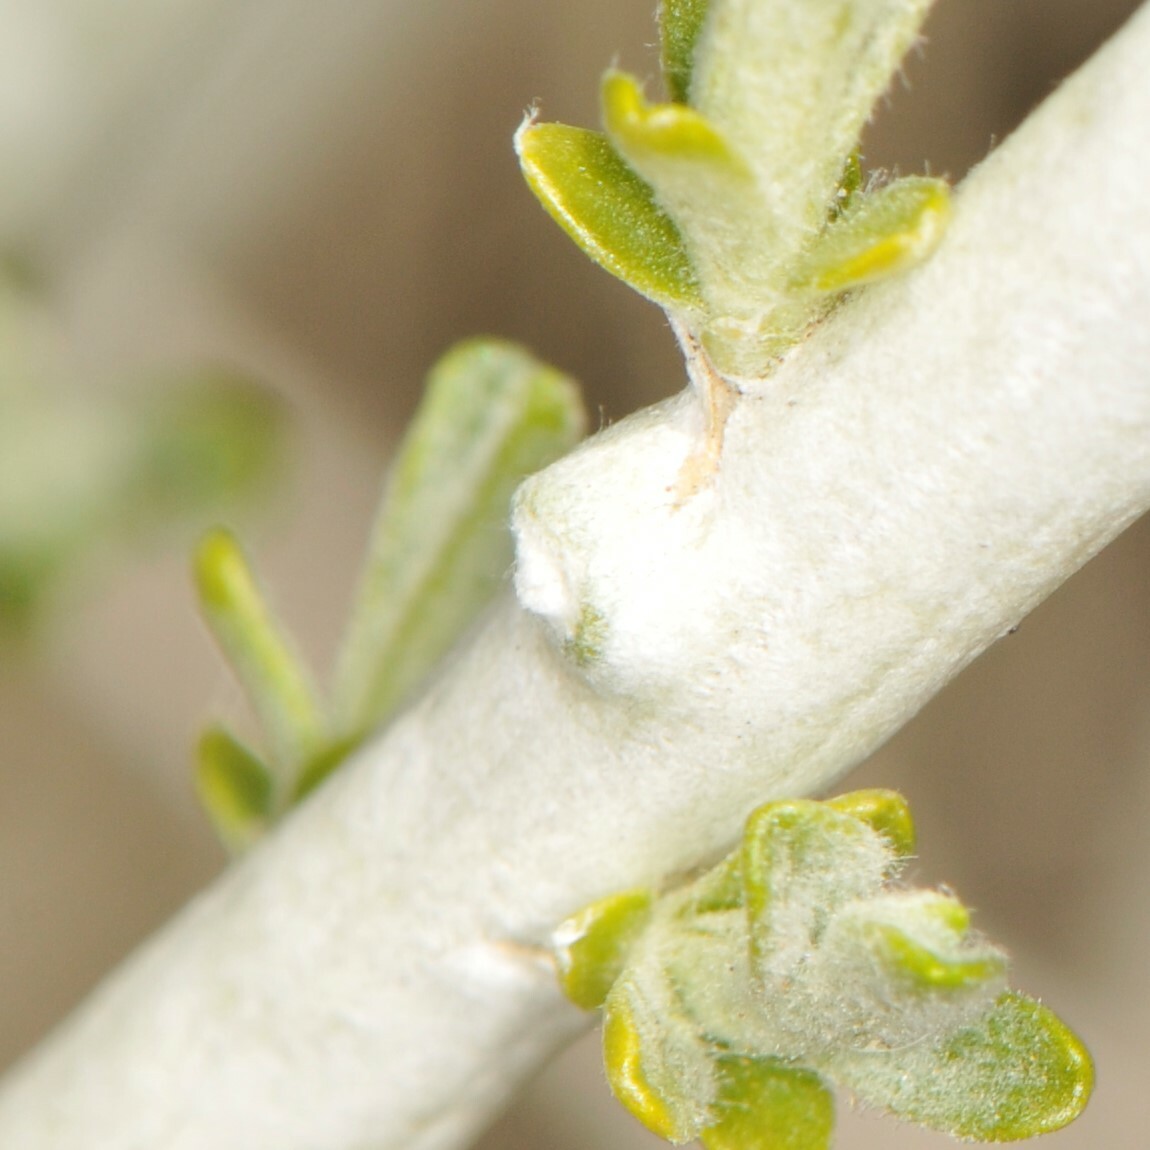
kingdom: Animalia
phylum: Arthropoda
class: Insecta
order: Diptera
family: Cecidomyiidae
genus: Rhopalomyia
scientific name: Rhopalomyia chrysothamni
